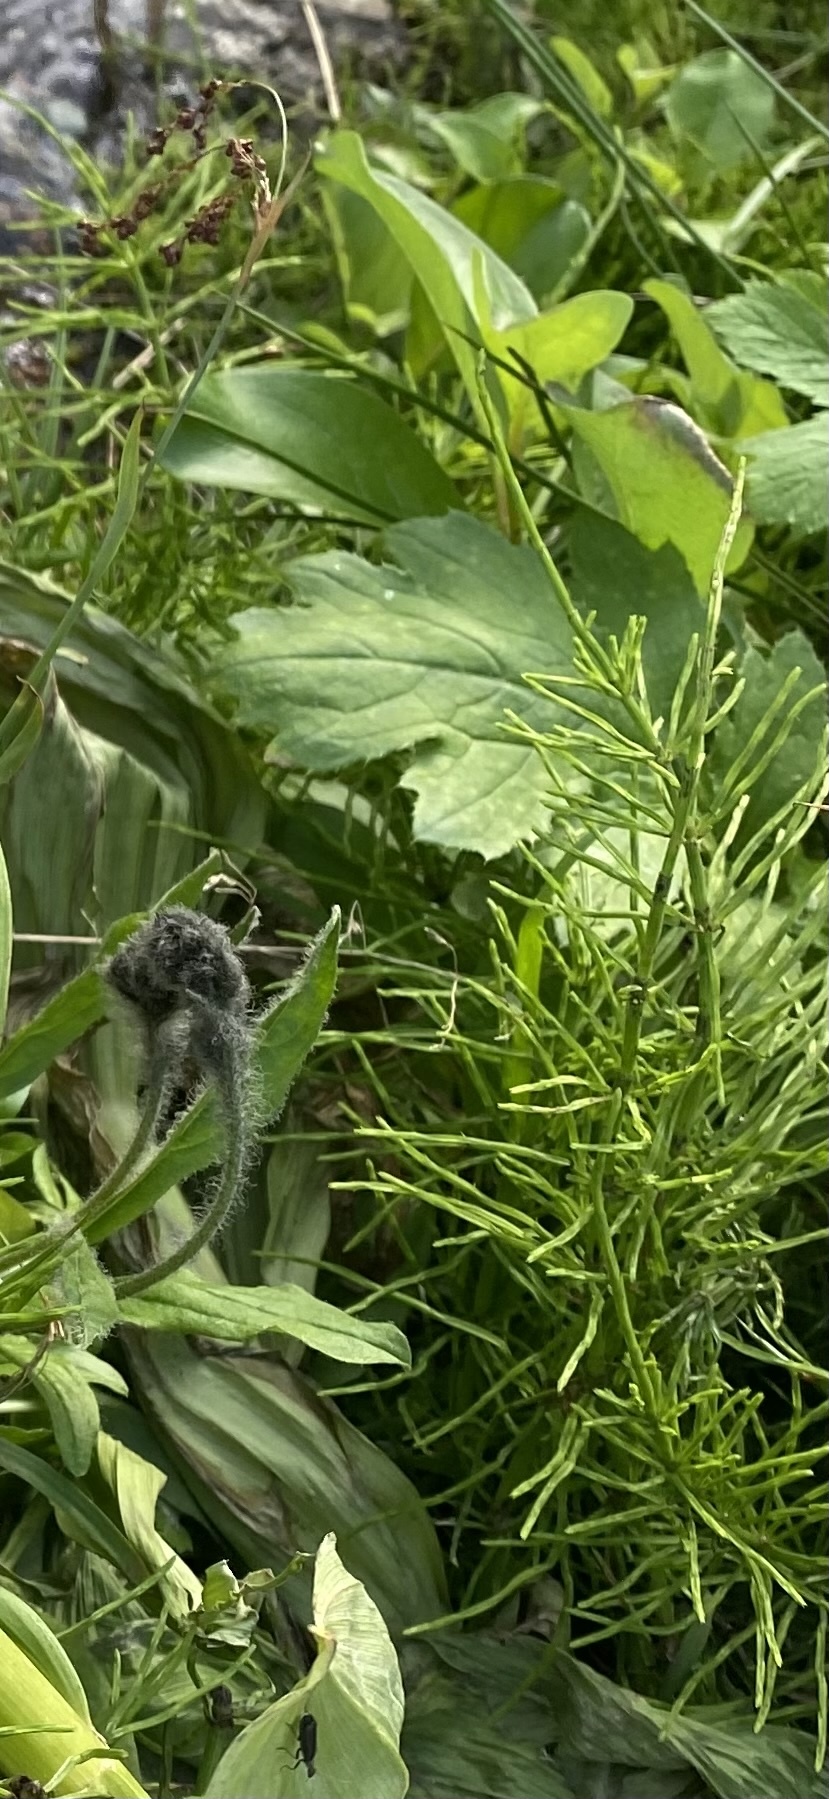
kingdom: Plantae
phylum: Tracheophyta
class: Polypodiopsida
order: Equisetales
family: Equisetaceae
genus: Equisetum
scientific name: Equisetum arvense
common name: Field horsetail
